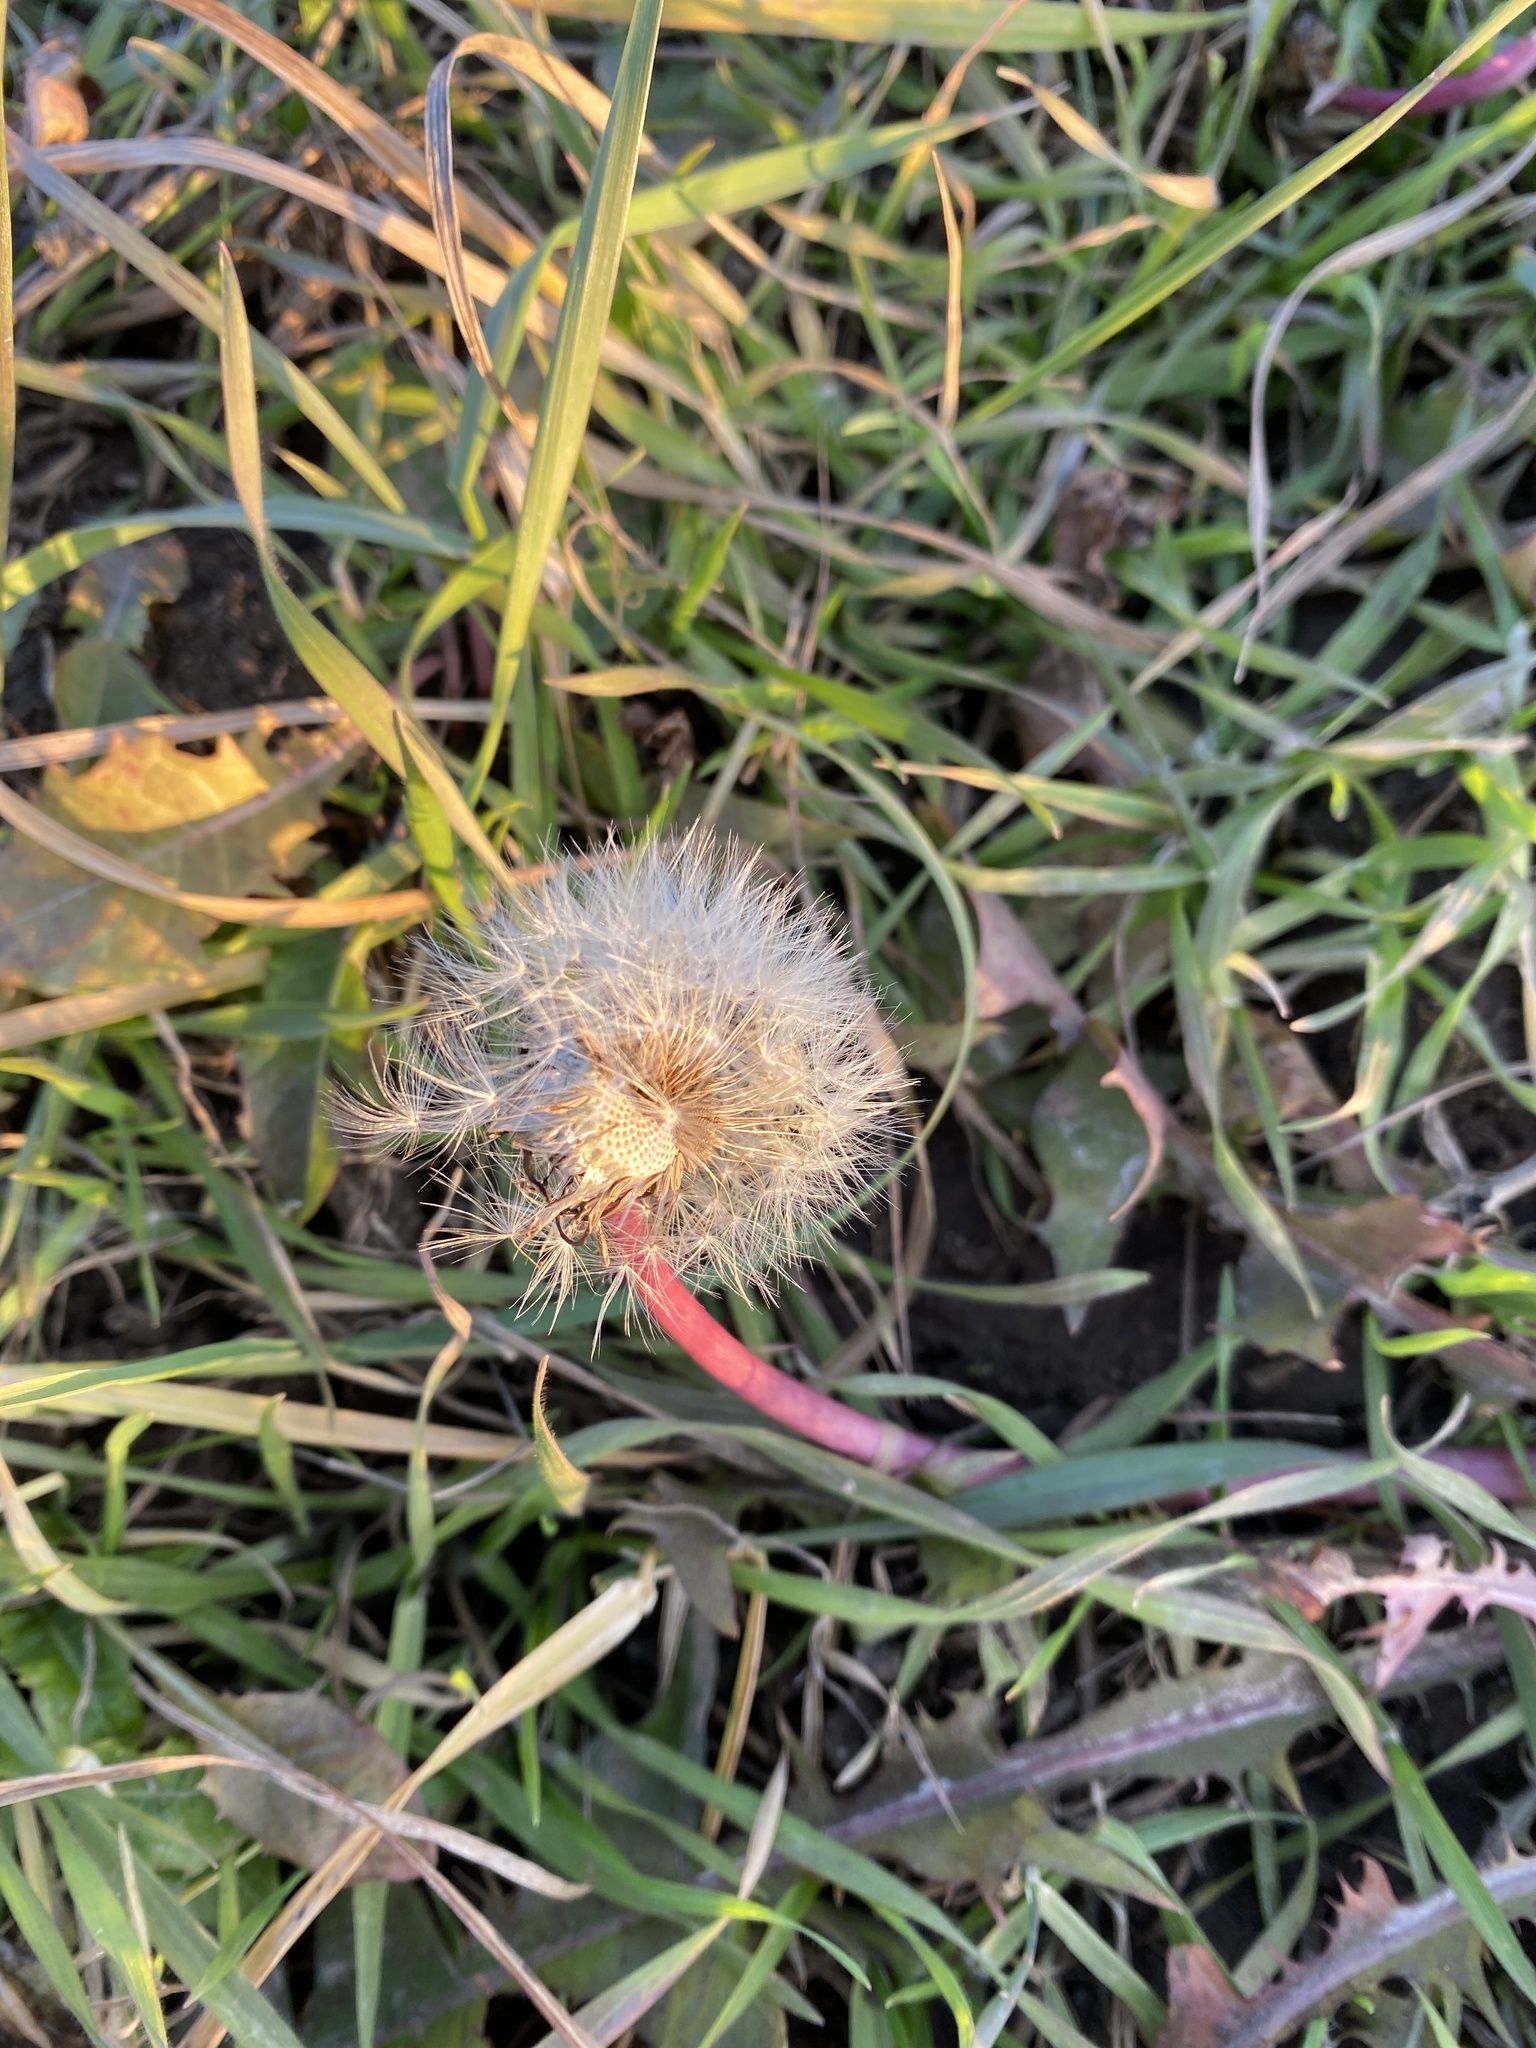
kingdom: Plantae
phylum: Tracheophyta
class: Magnoliopsida
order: Asterales
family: Asteraceae
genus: Taraxacum
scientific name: Taraxacum officinale
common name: Common dandelion
